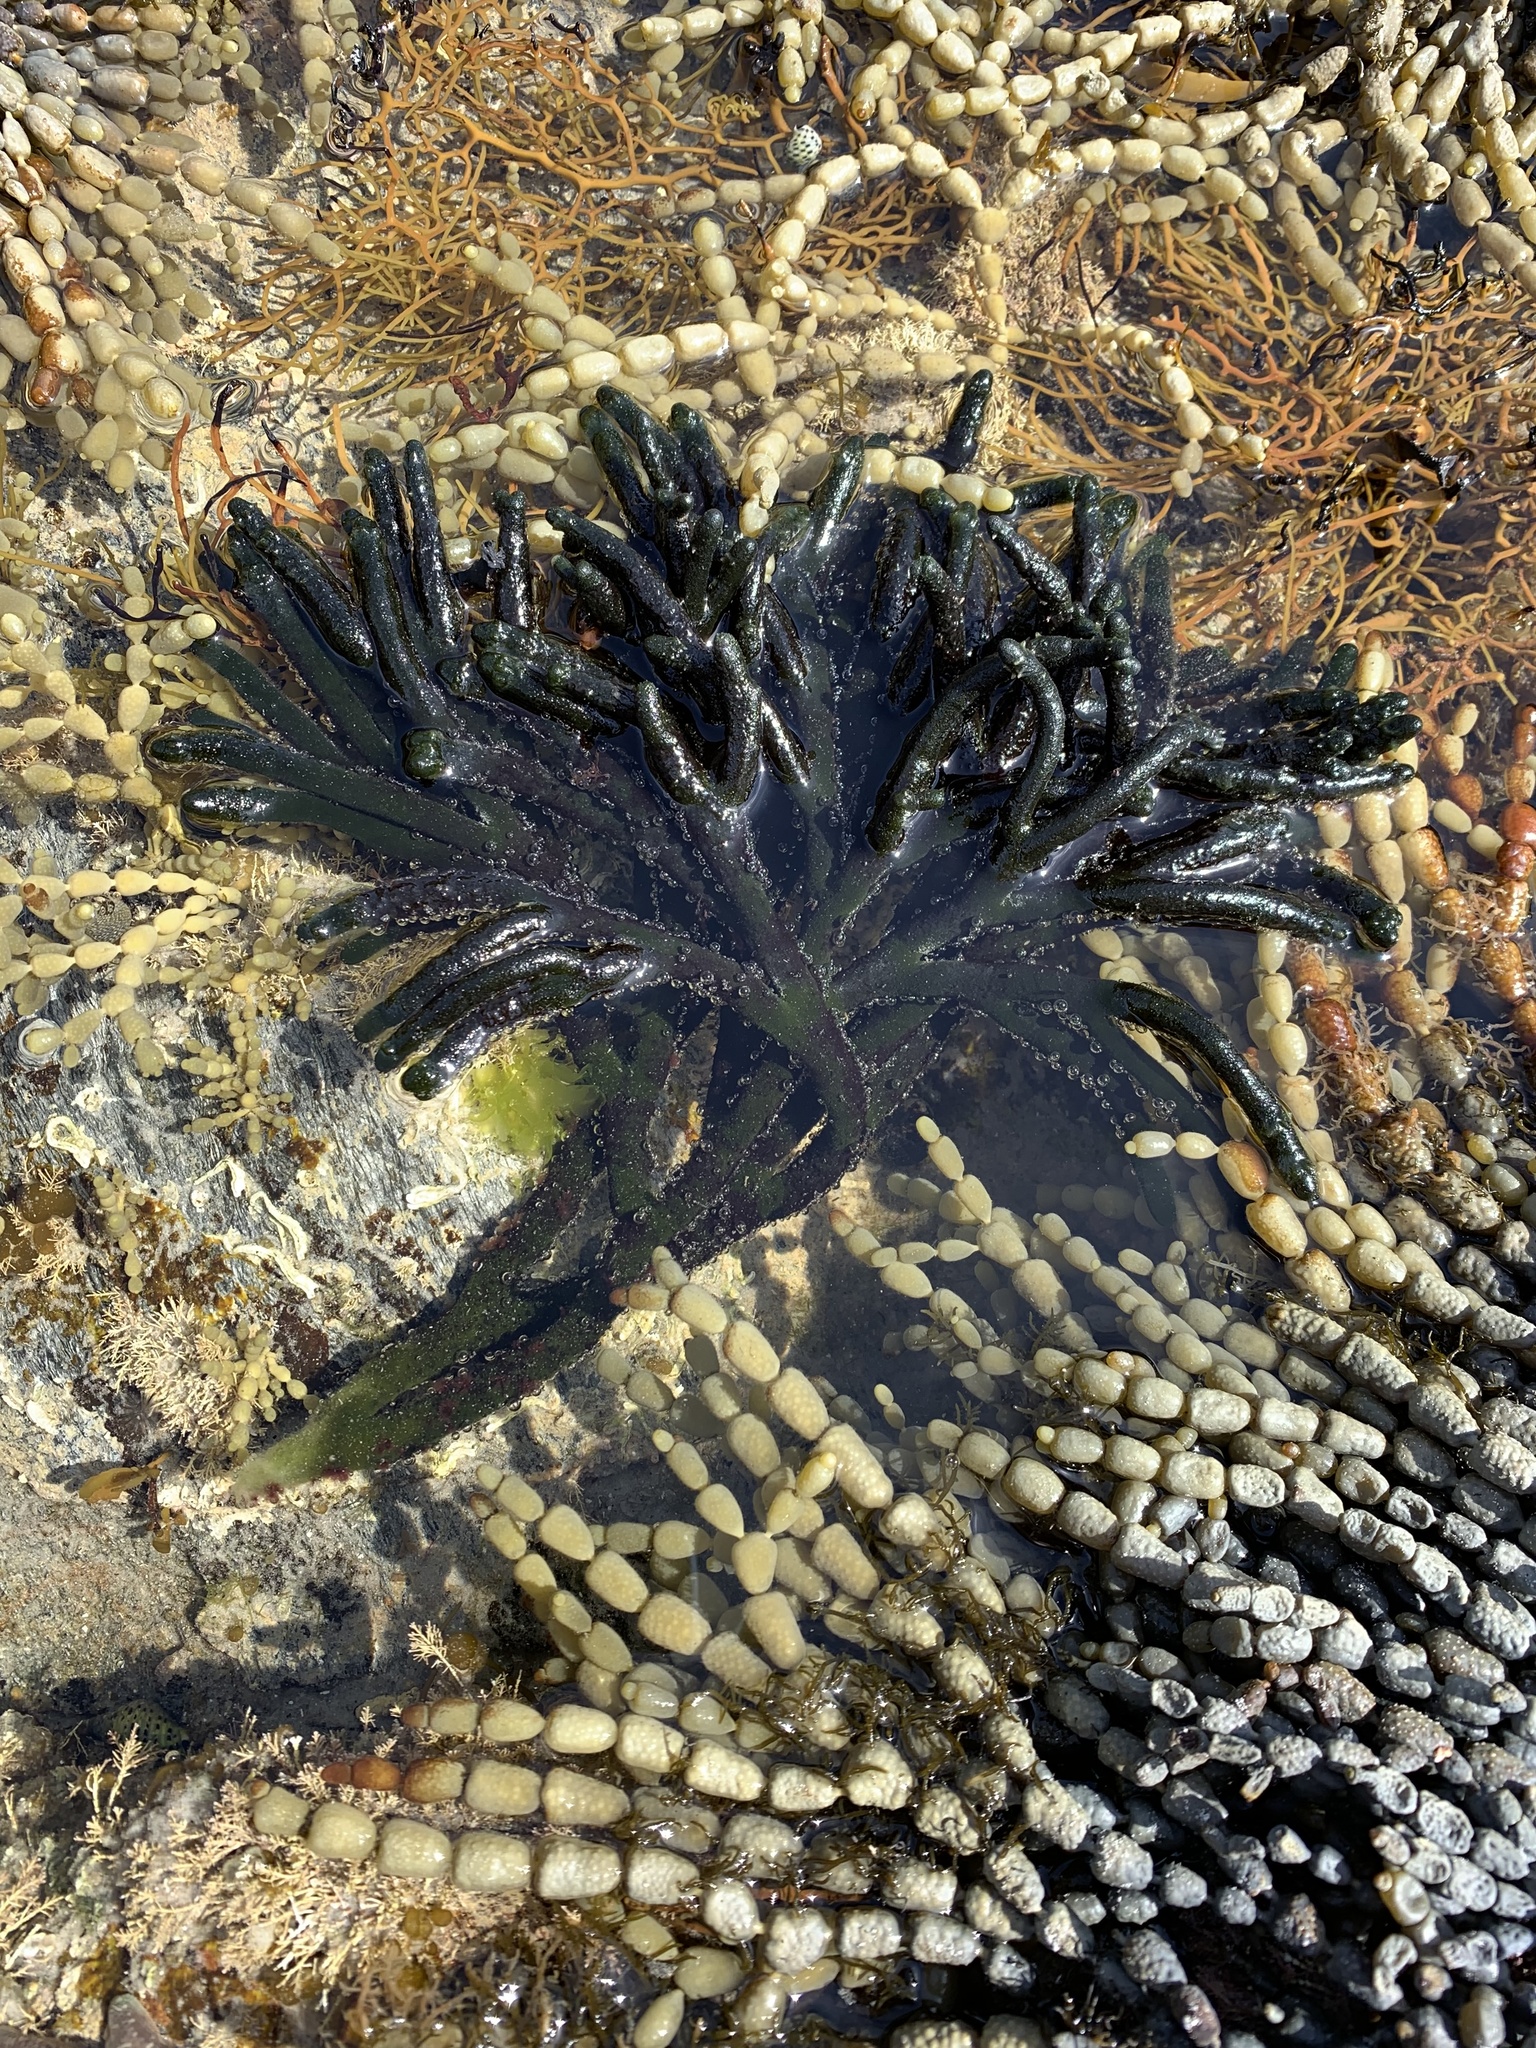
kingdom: Chromista
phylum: Ochrophyta
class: Phaeophyceae
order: Fucales
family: Hormosiraceae
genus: Hormosira
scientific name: Hormosira banksii
